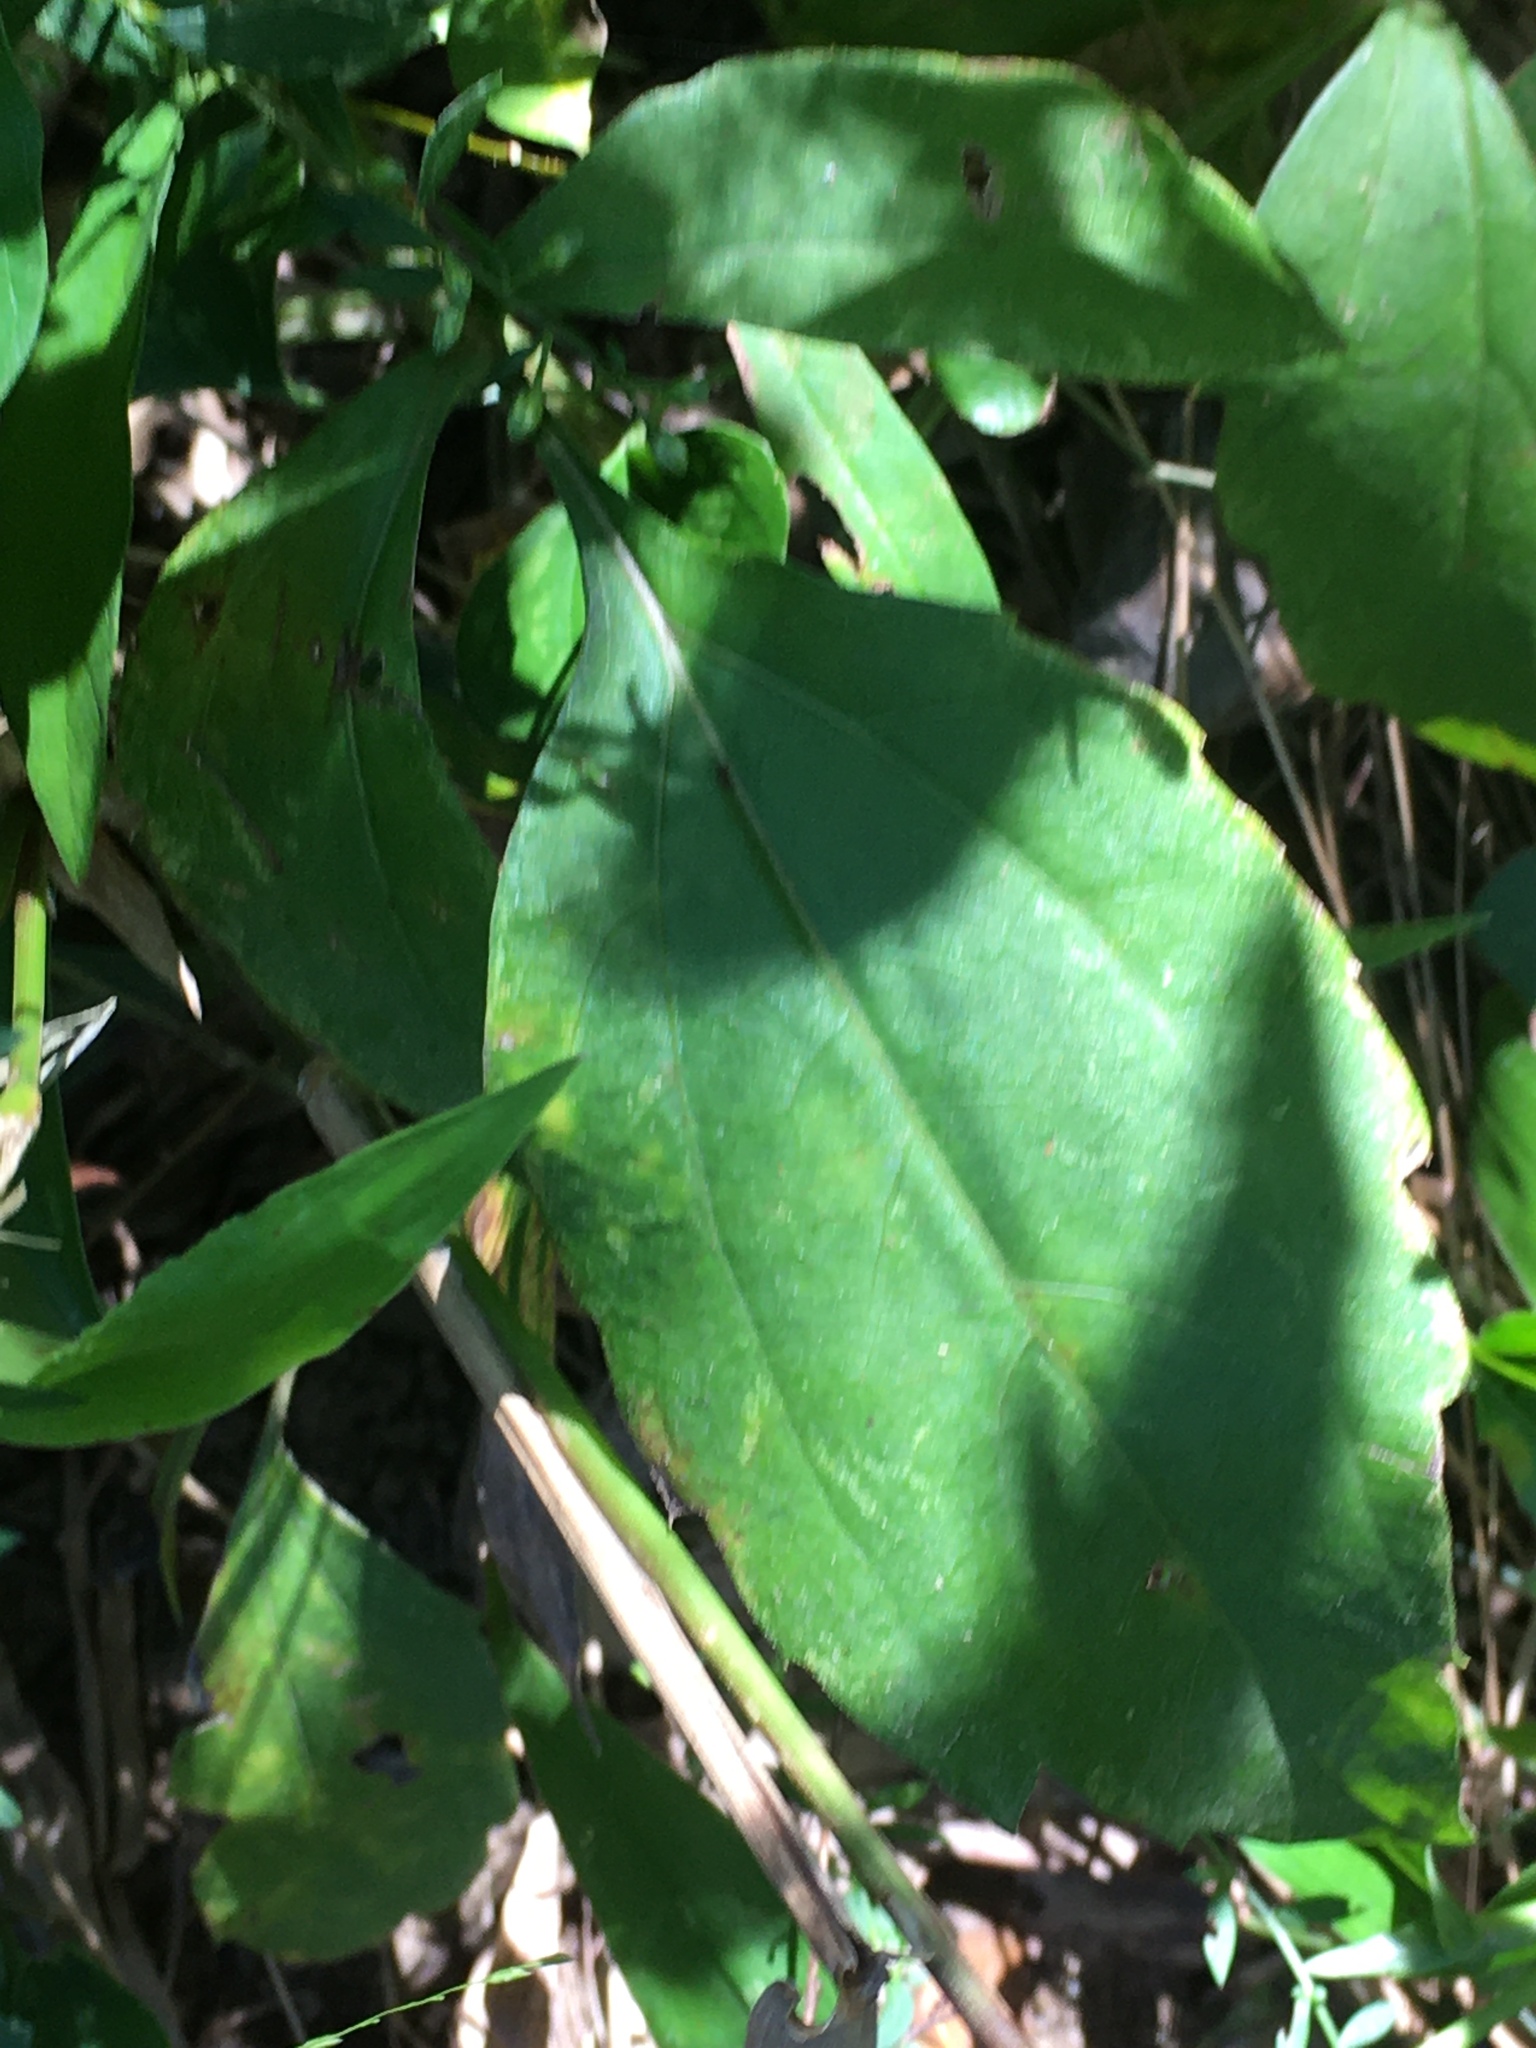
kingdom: Plantae
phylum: Tracheophyta
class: Magnoliopsida
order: Asterales
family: Asteraceae
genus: Rudbeckia
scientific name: Rudbeckia laciniata
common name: Coneflower
